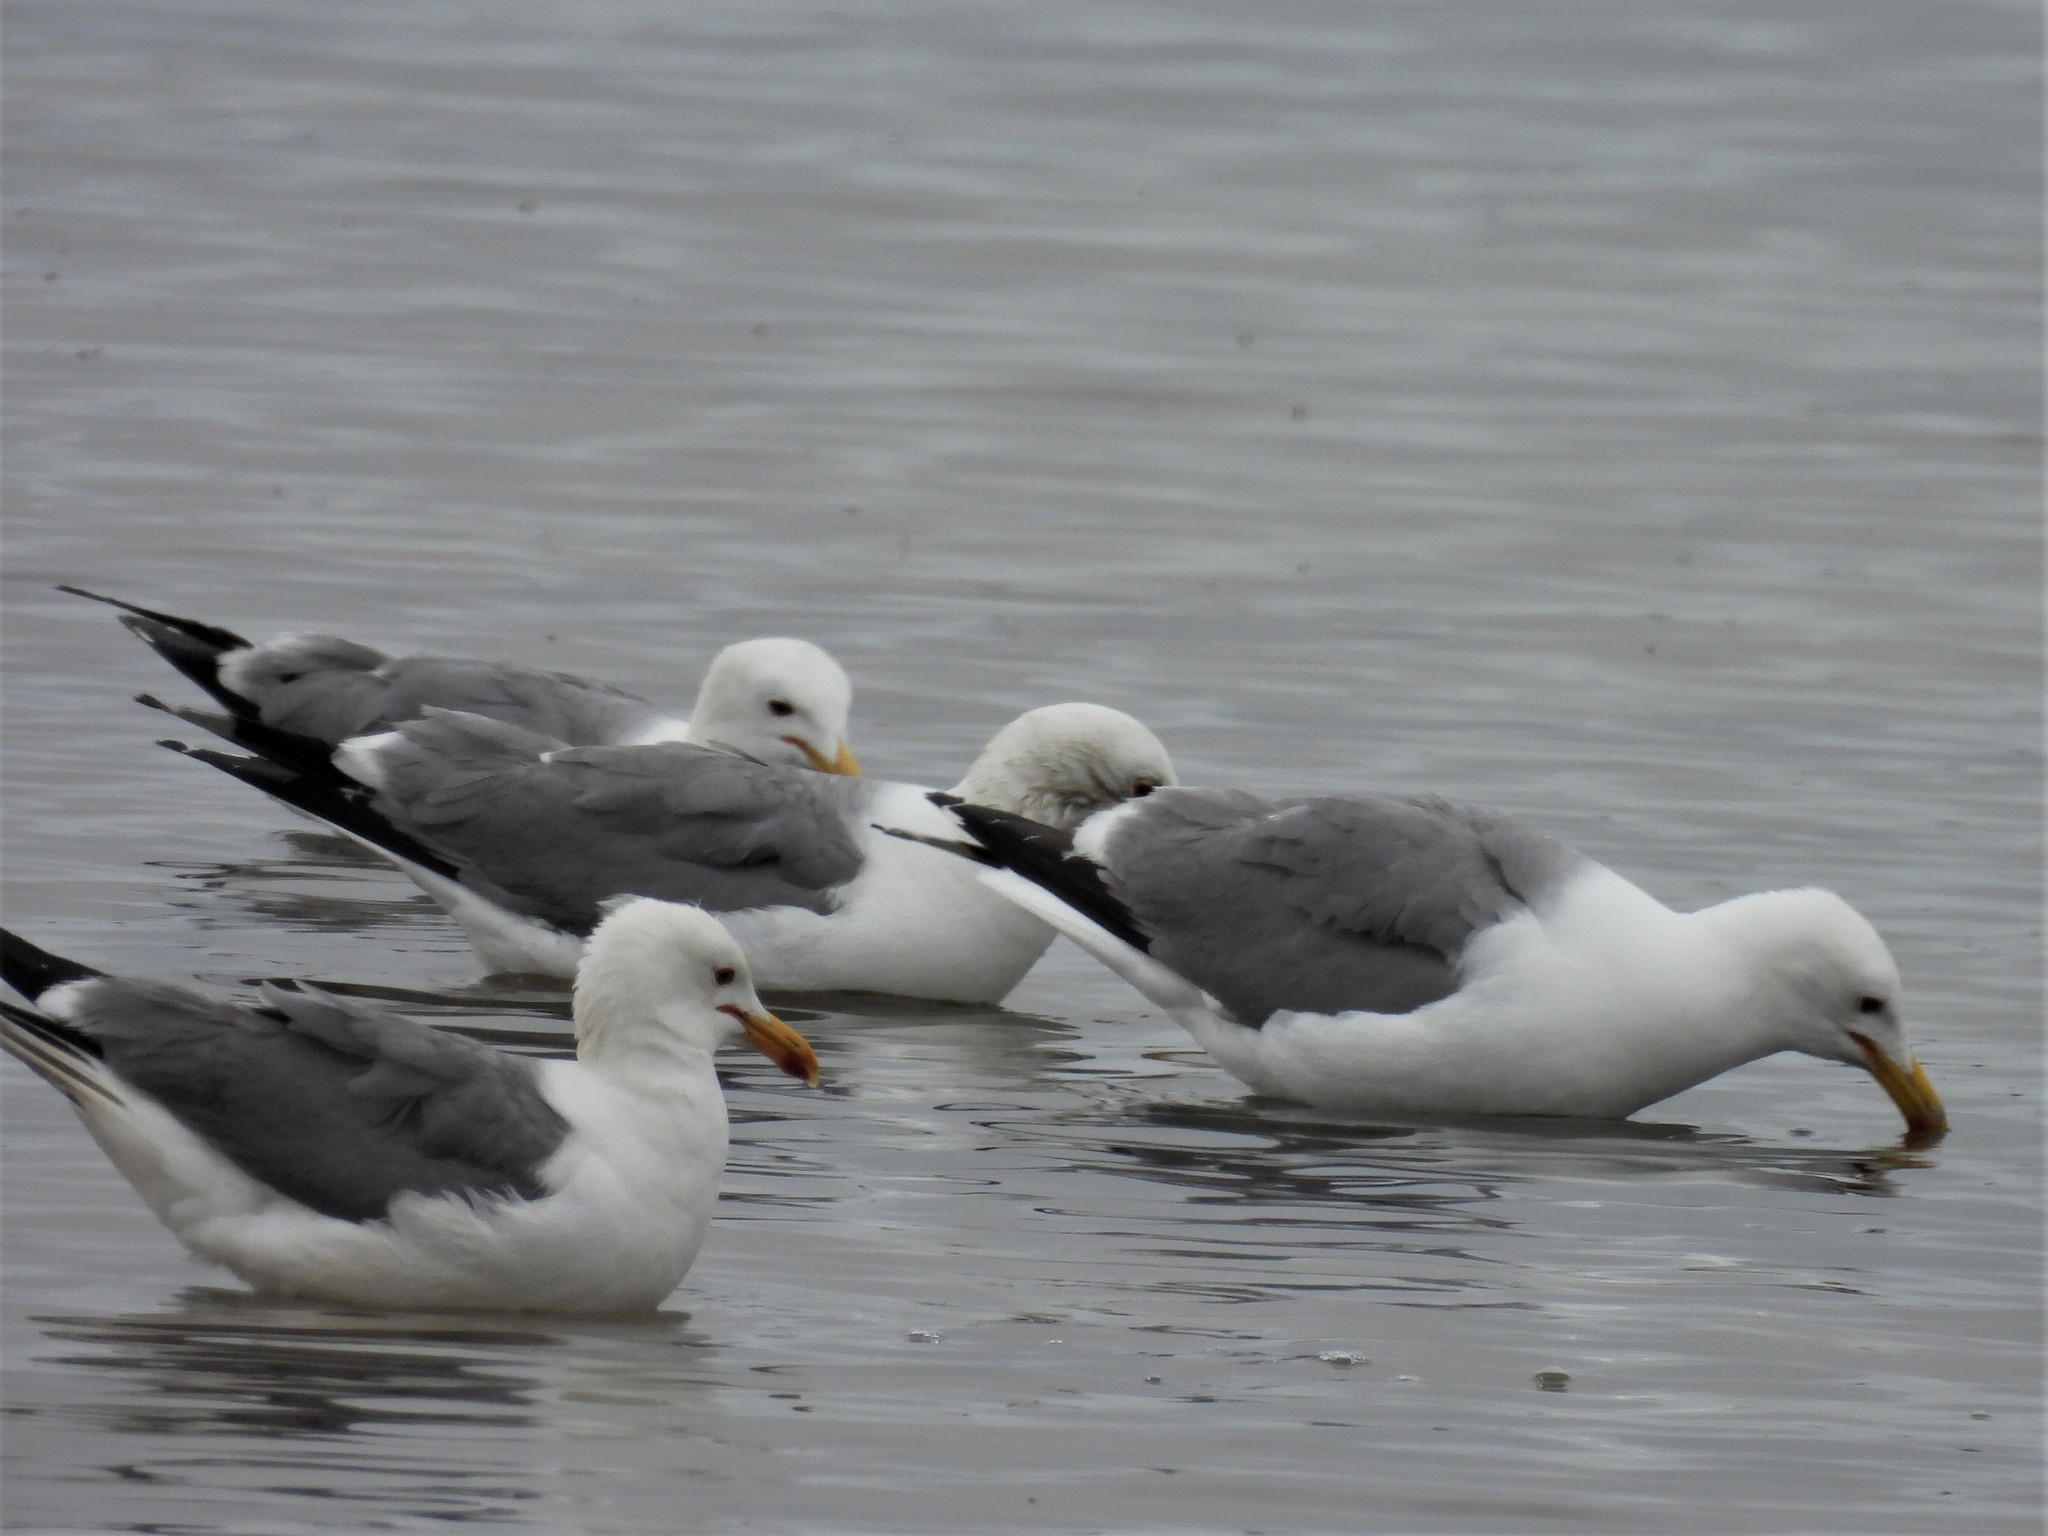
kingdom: Animalia
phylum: Chordata
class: Aves
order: Charadriiformes
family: Laridae
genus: Larus
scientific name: Larus californicus
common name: California gull
